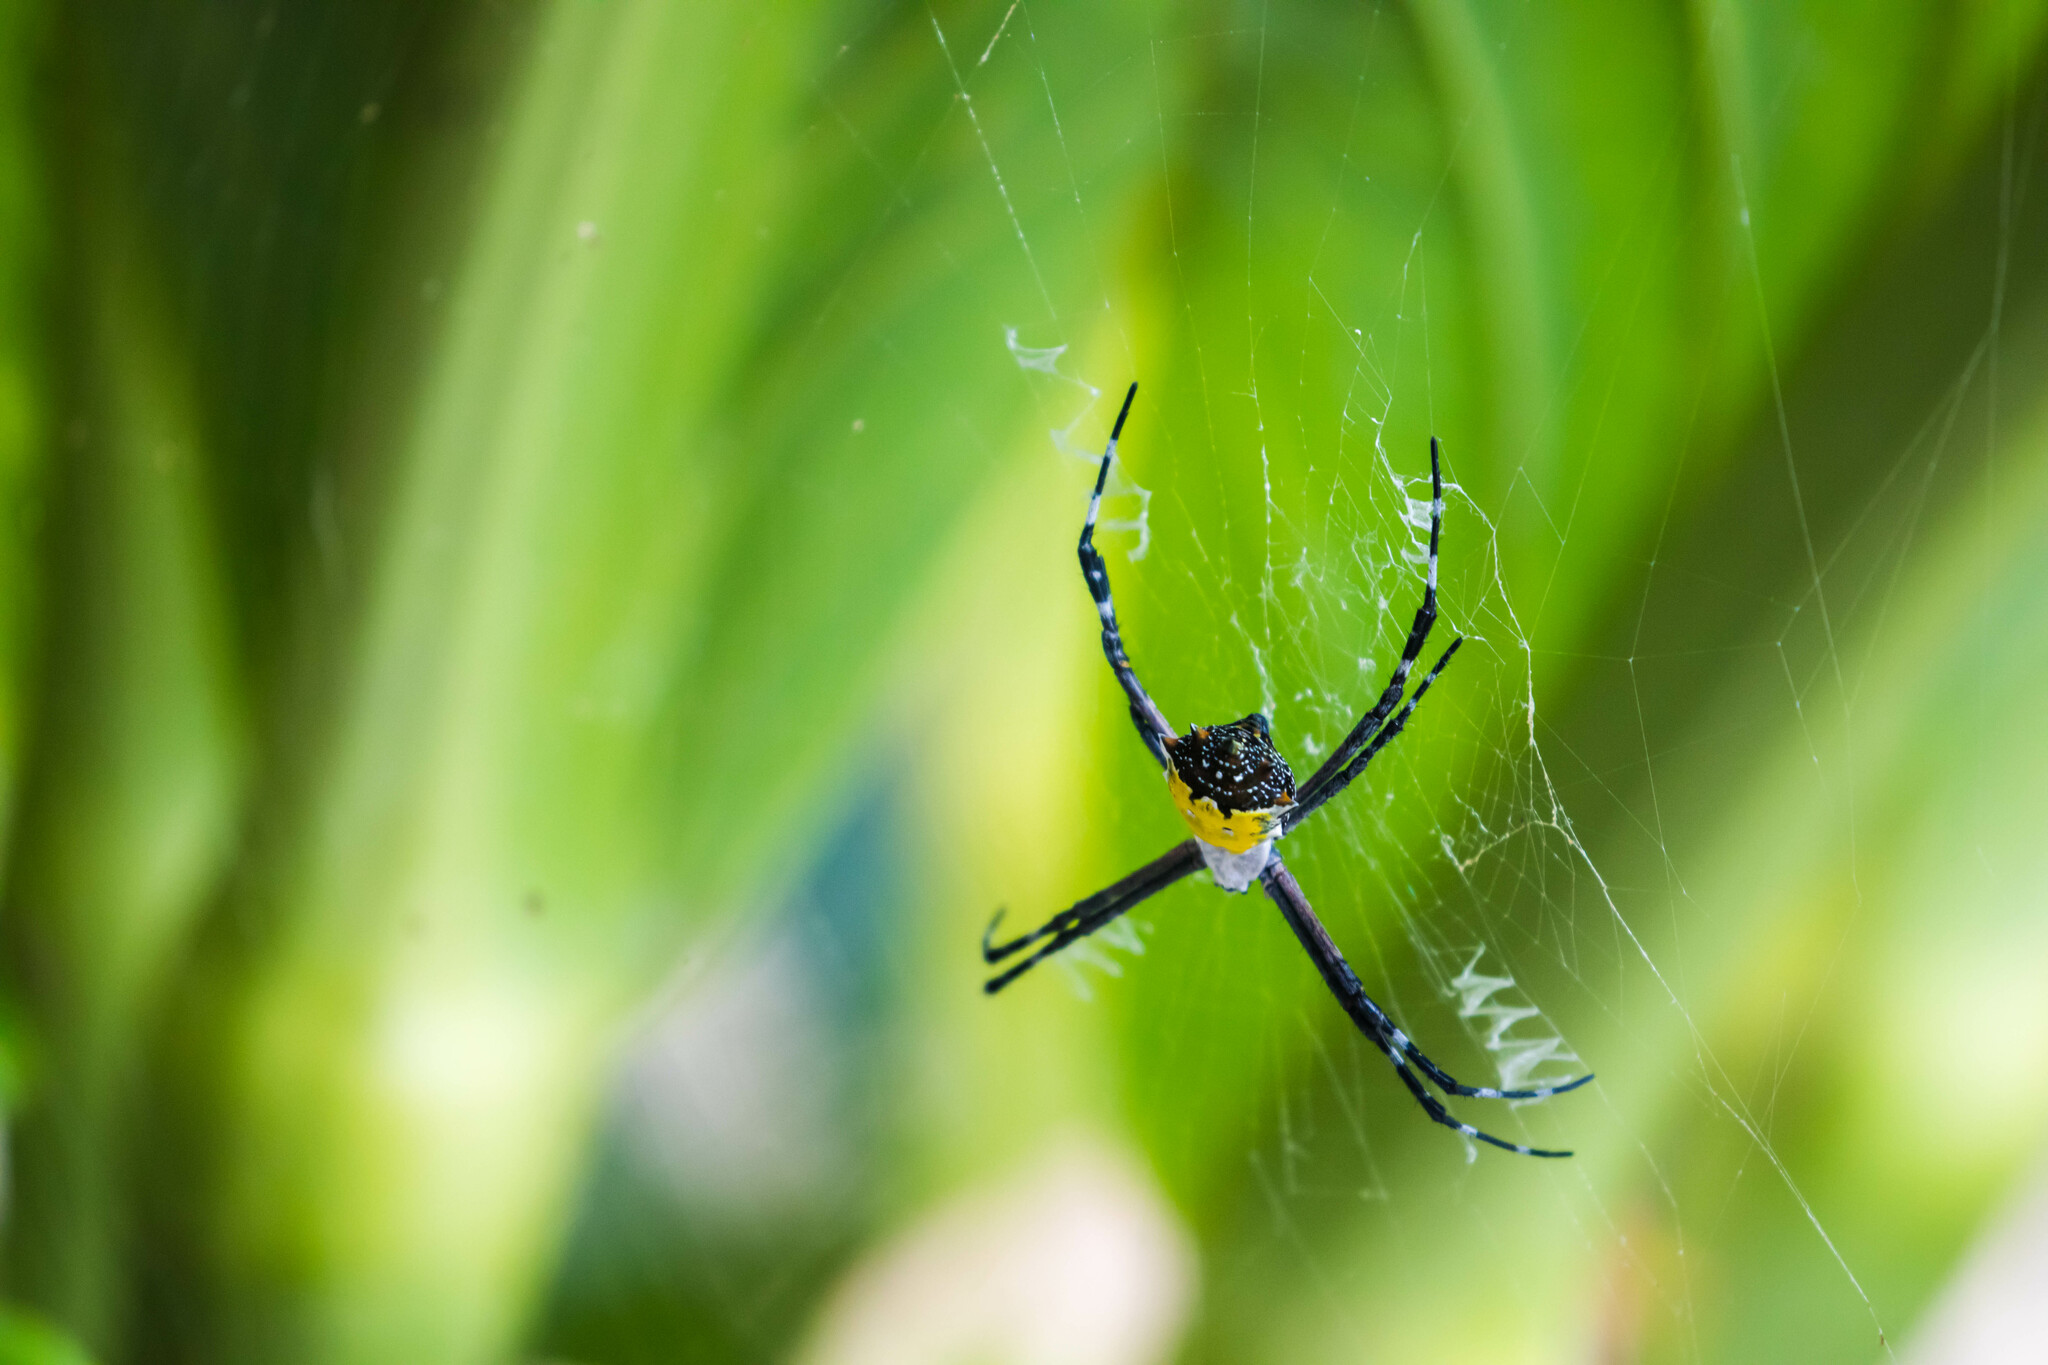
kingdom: Animalia
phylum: Arthropoda
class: Arachnida
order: Araneae
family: Araneidae
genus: Argiope
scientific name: Argiope submaronica
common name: Orb weavers
